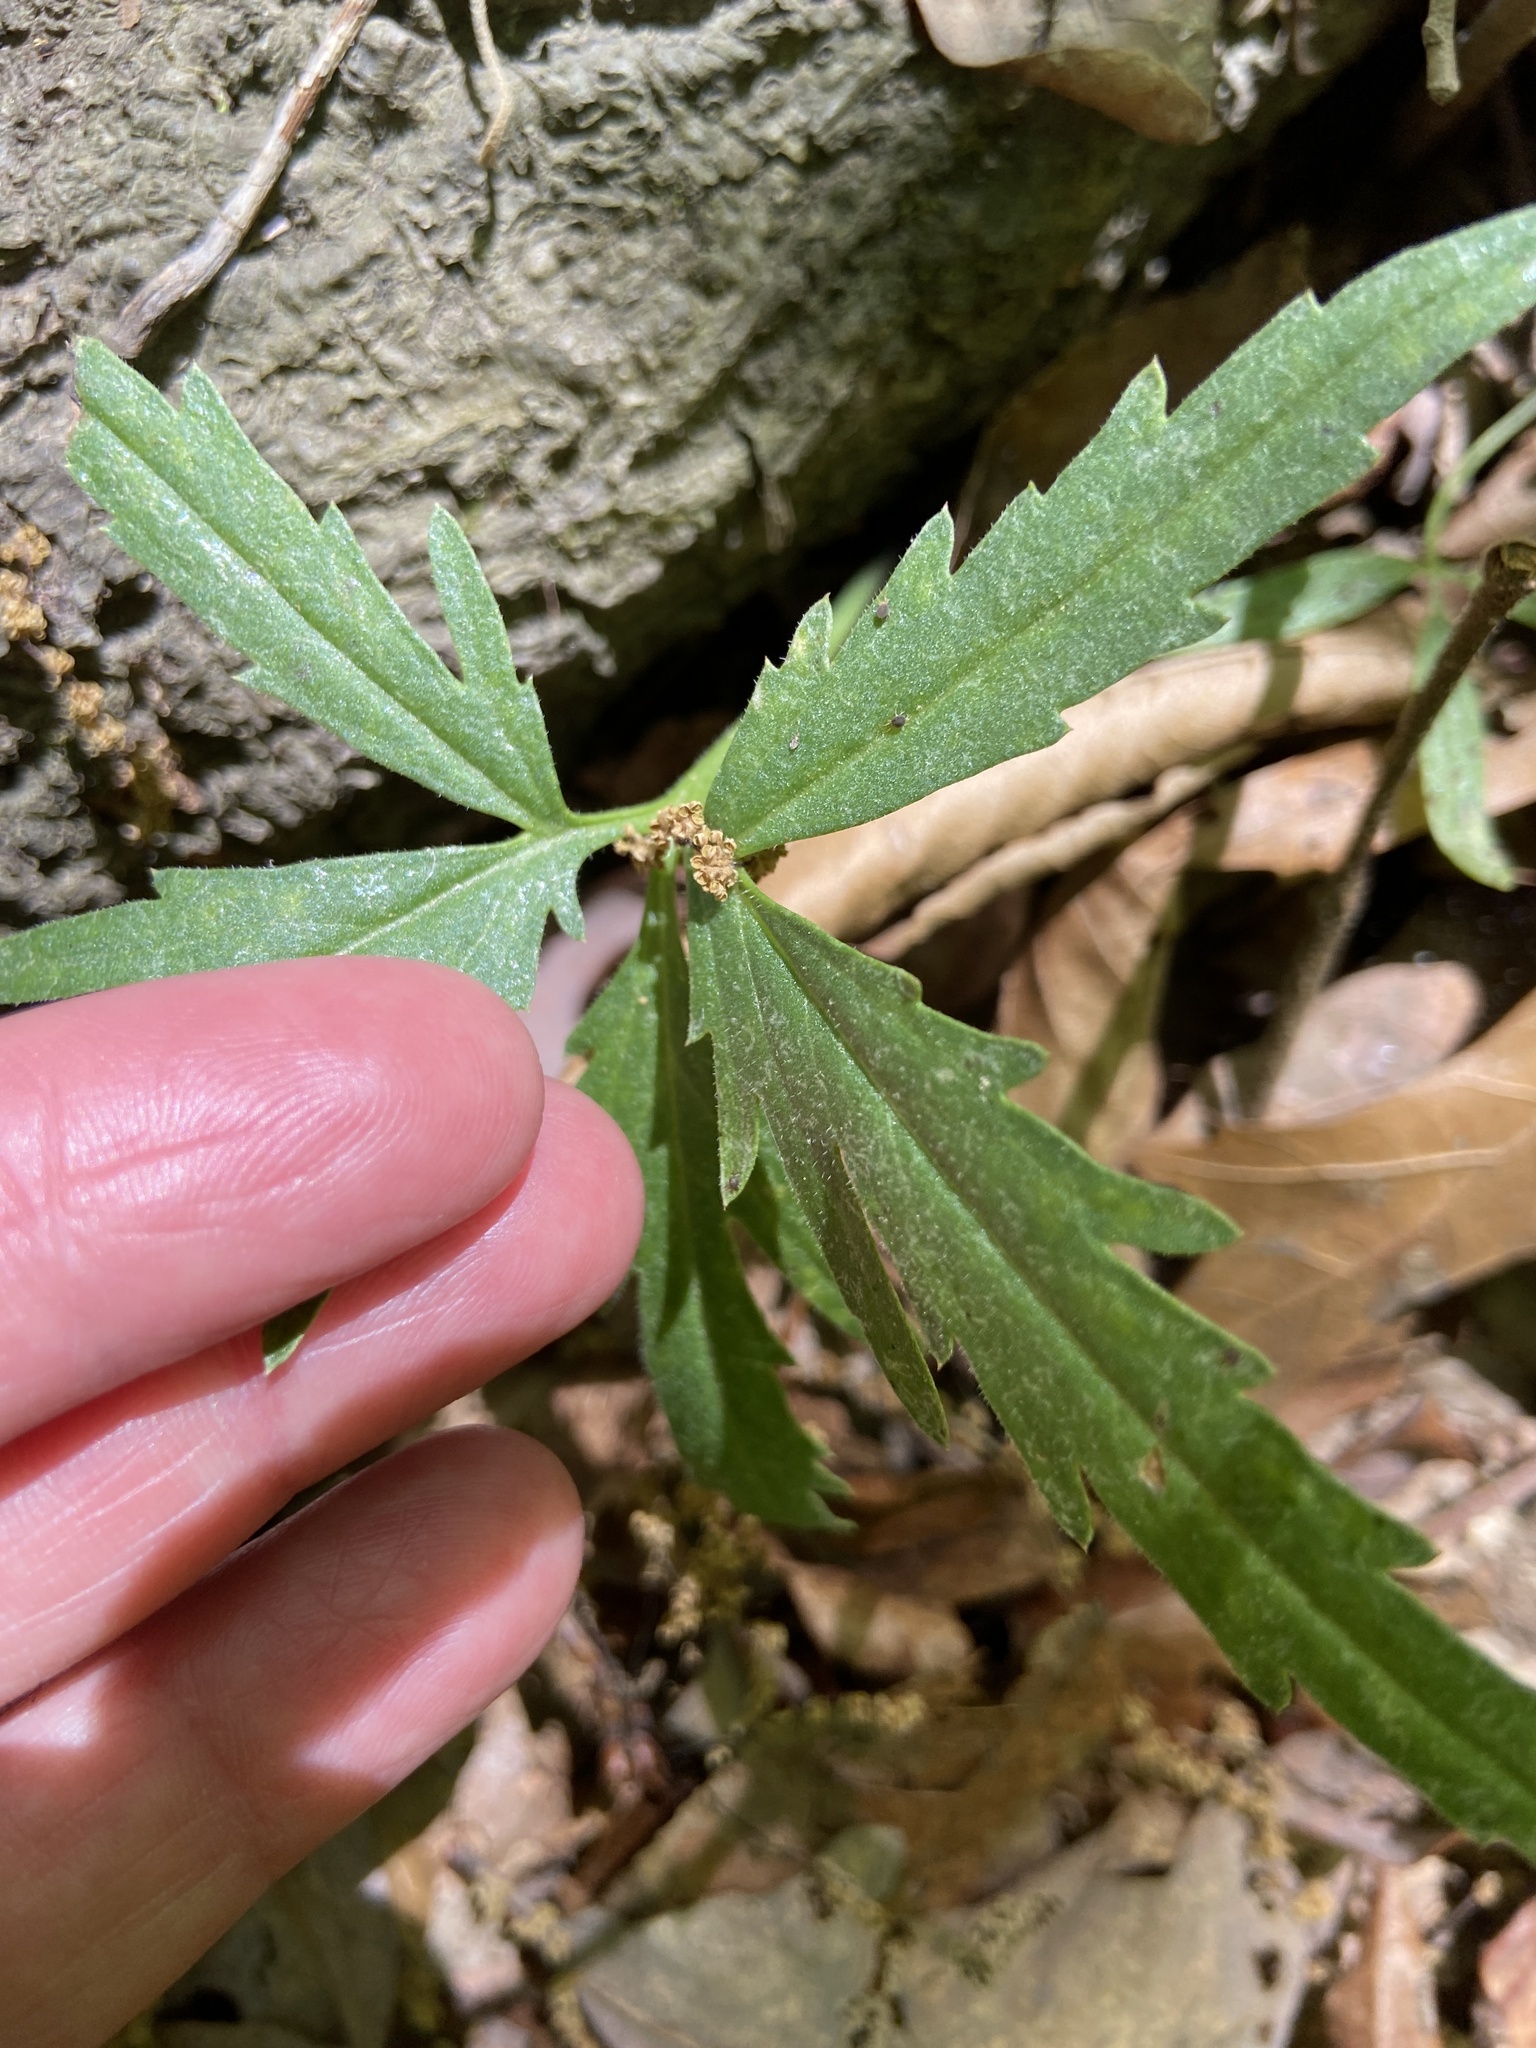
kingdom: Plantae
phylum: Tracheophyta
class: Magnoliopsida
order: Brassicales
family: Brassicaceae
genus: Cardamine
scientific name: Cardamine concatenata
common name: Cut-leaf toothcup
